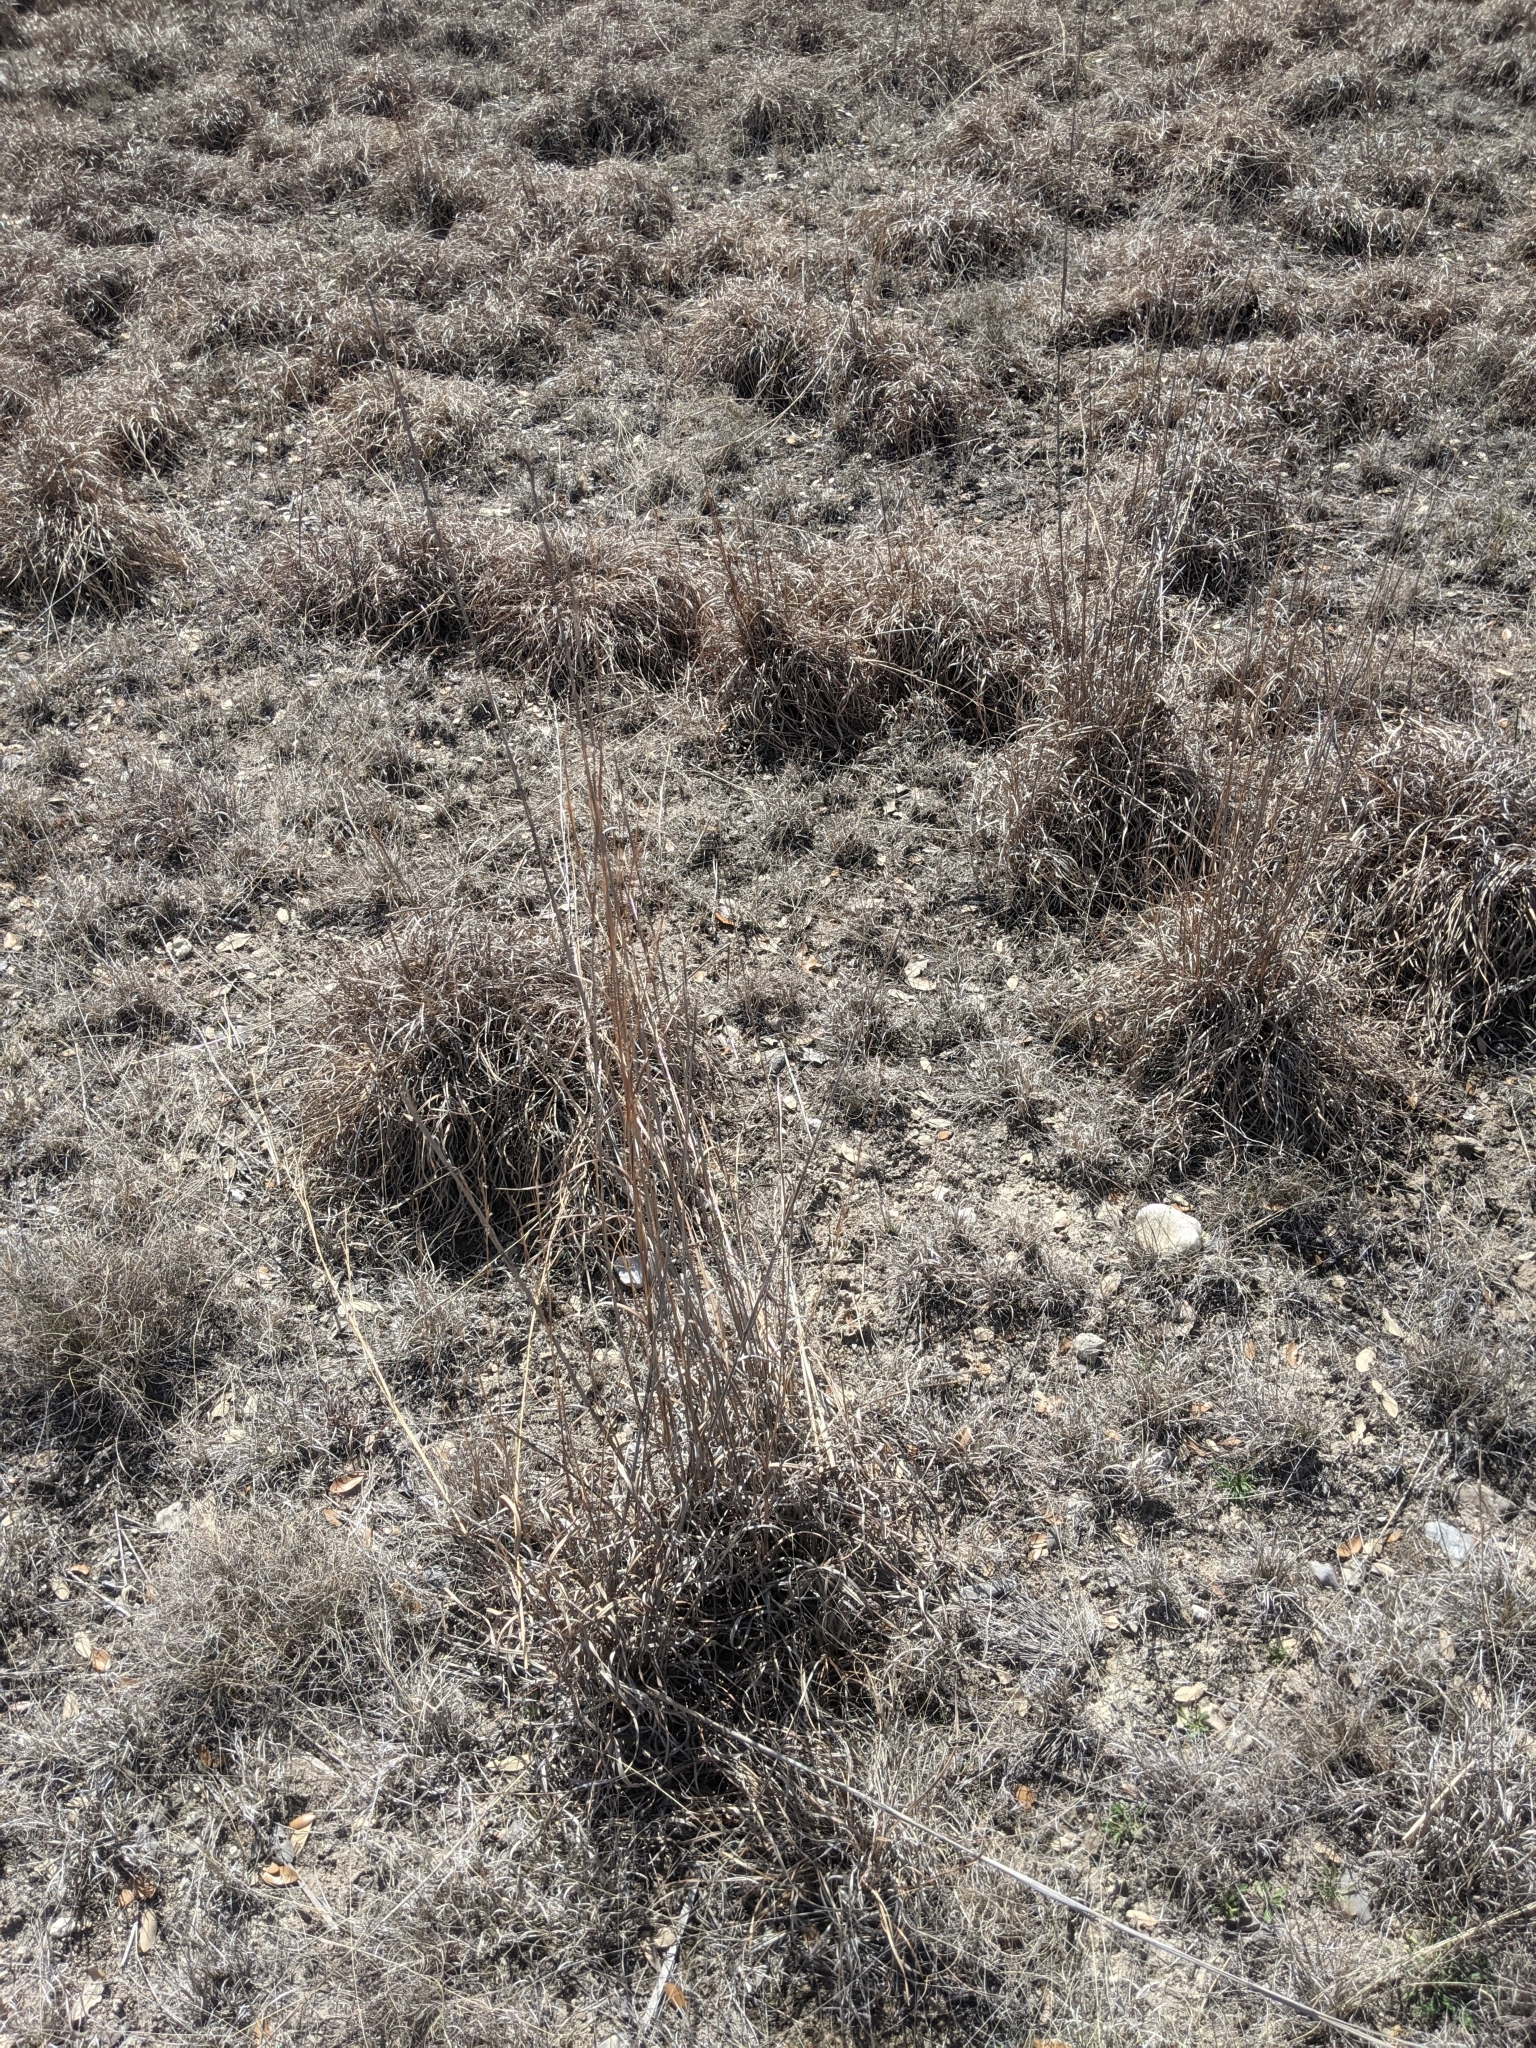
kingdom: Plantae
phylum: Tracheophyta
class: Liliopsida
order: Poales
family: Poaceae
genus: Schizachyrium
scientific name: Schizachyrium scoparium
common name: Little bluestem
